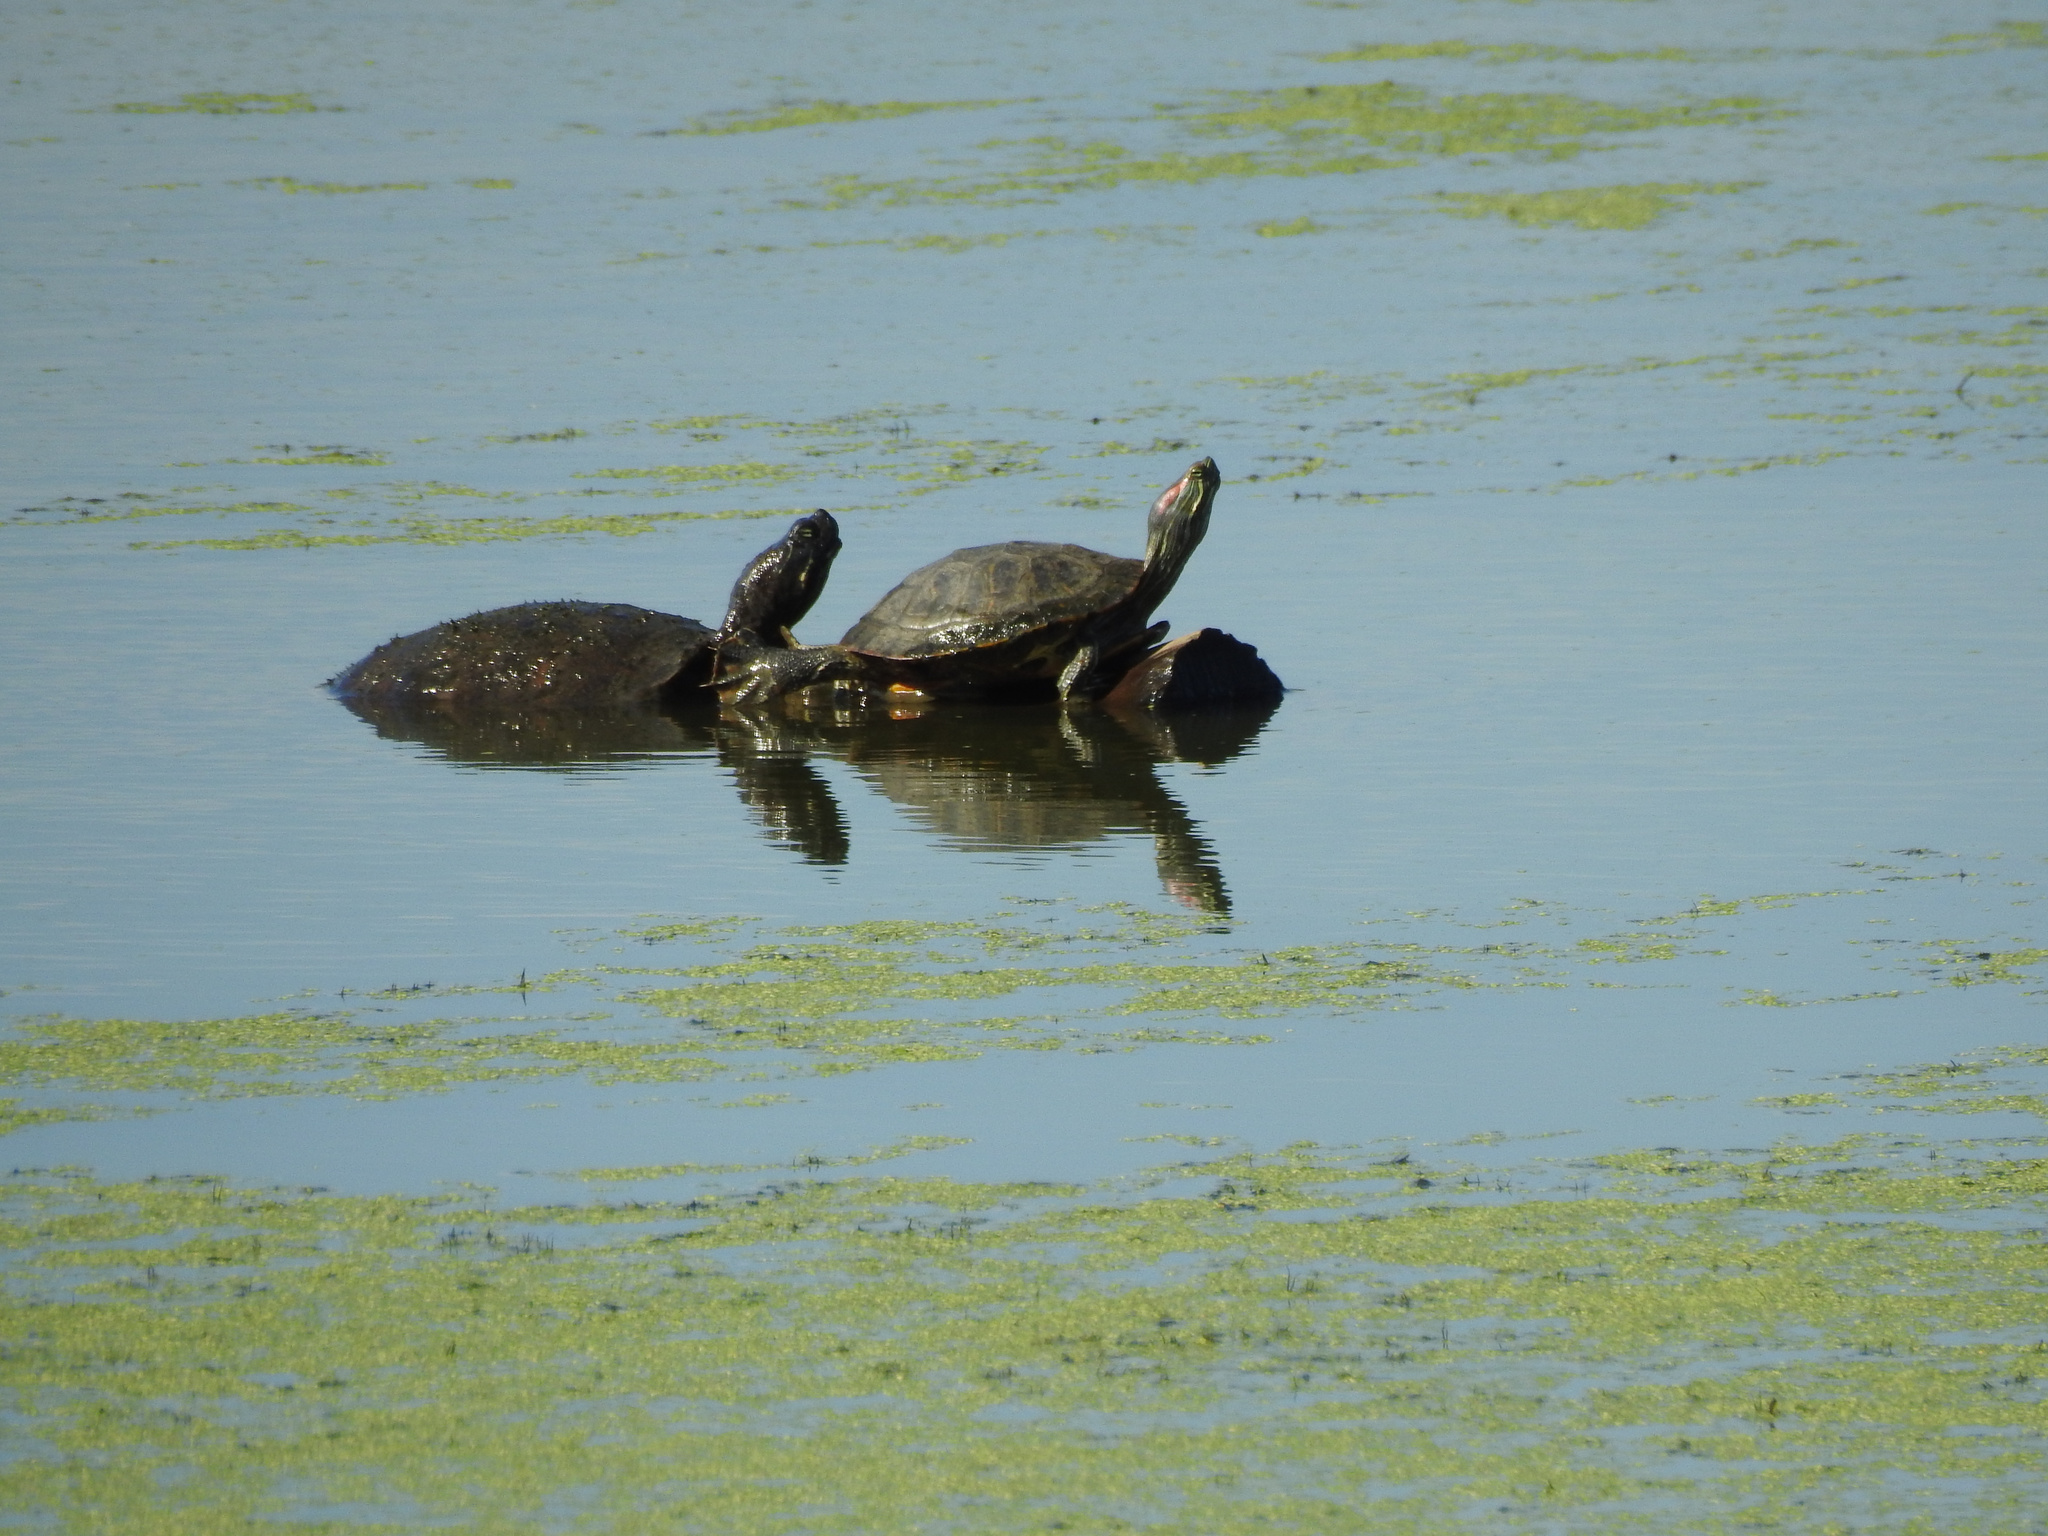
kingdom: Animalia
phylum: Chordata
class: Testudines
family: Emydidae
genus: Trachemys
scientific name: Trachemys scripta
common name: Slider
